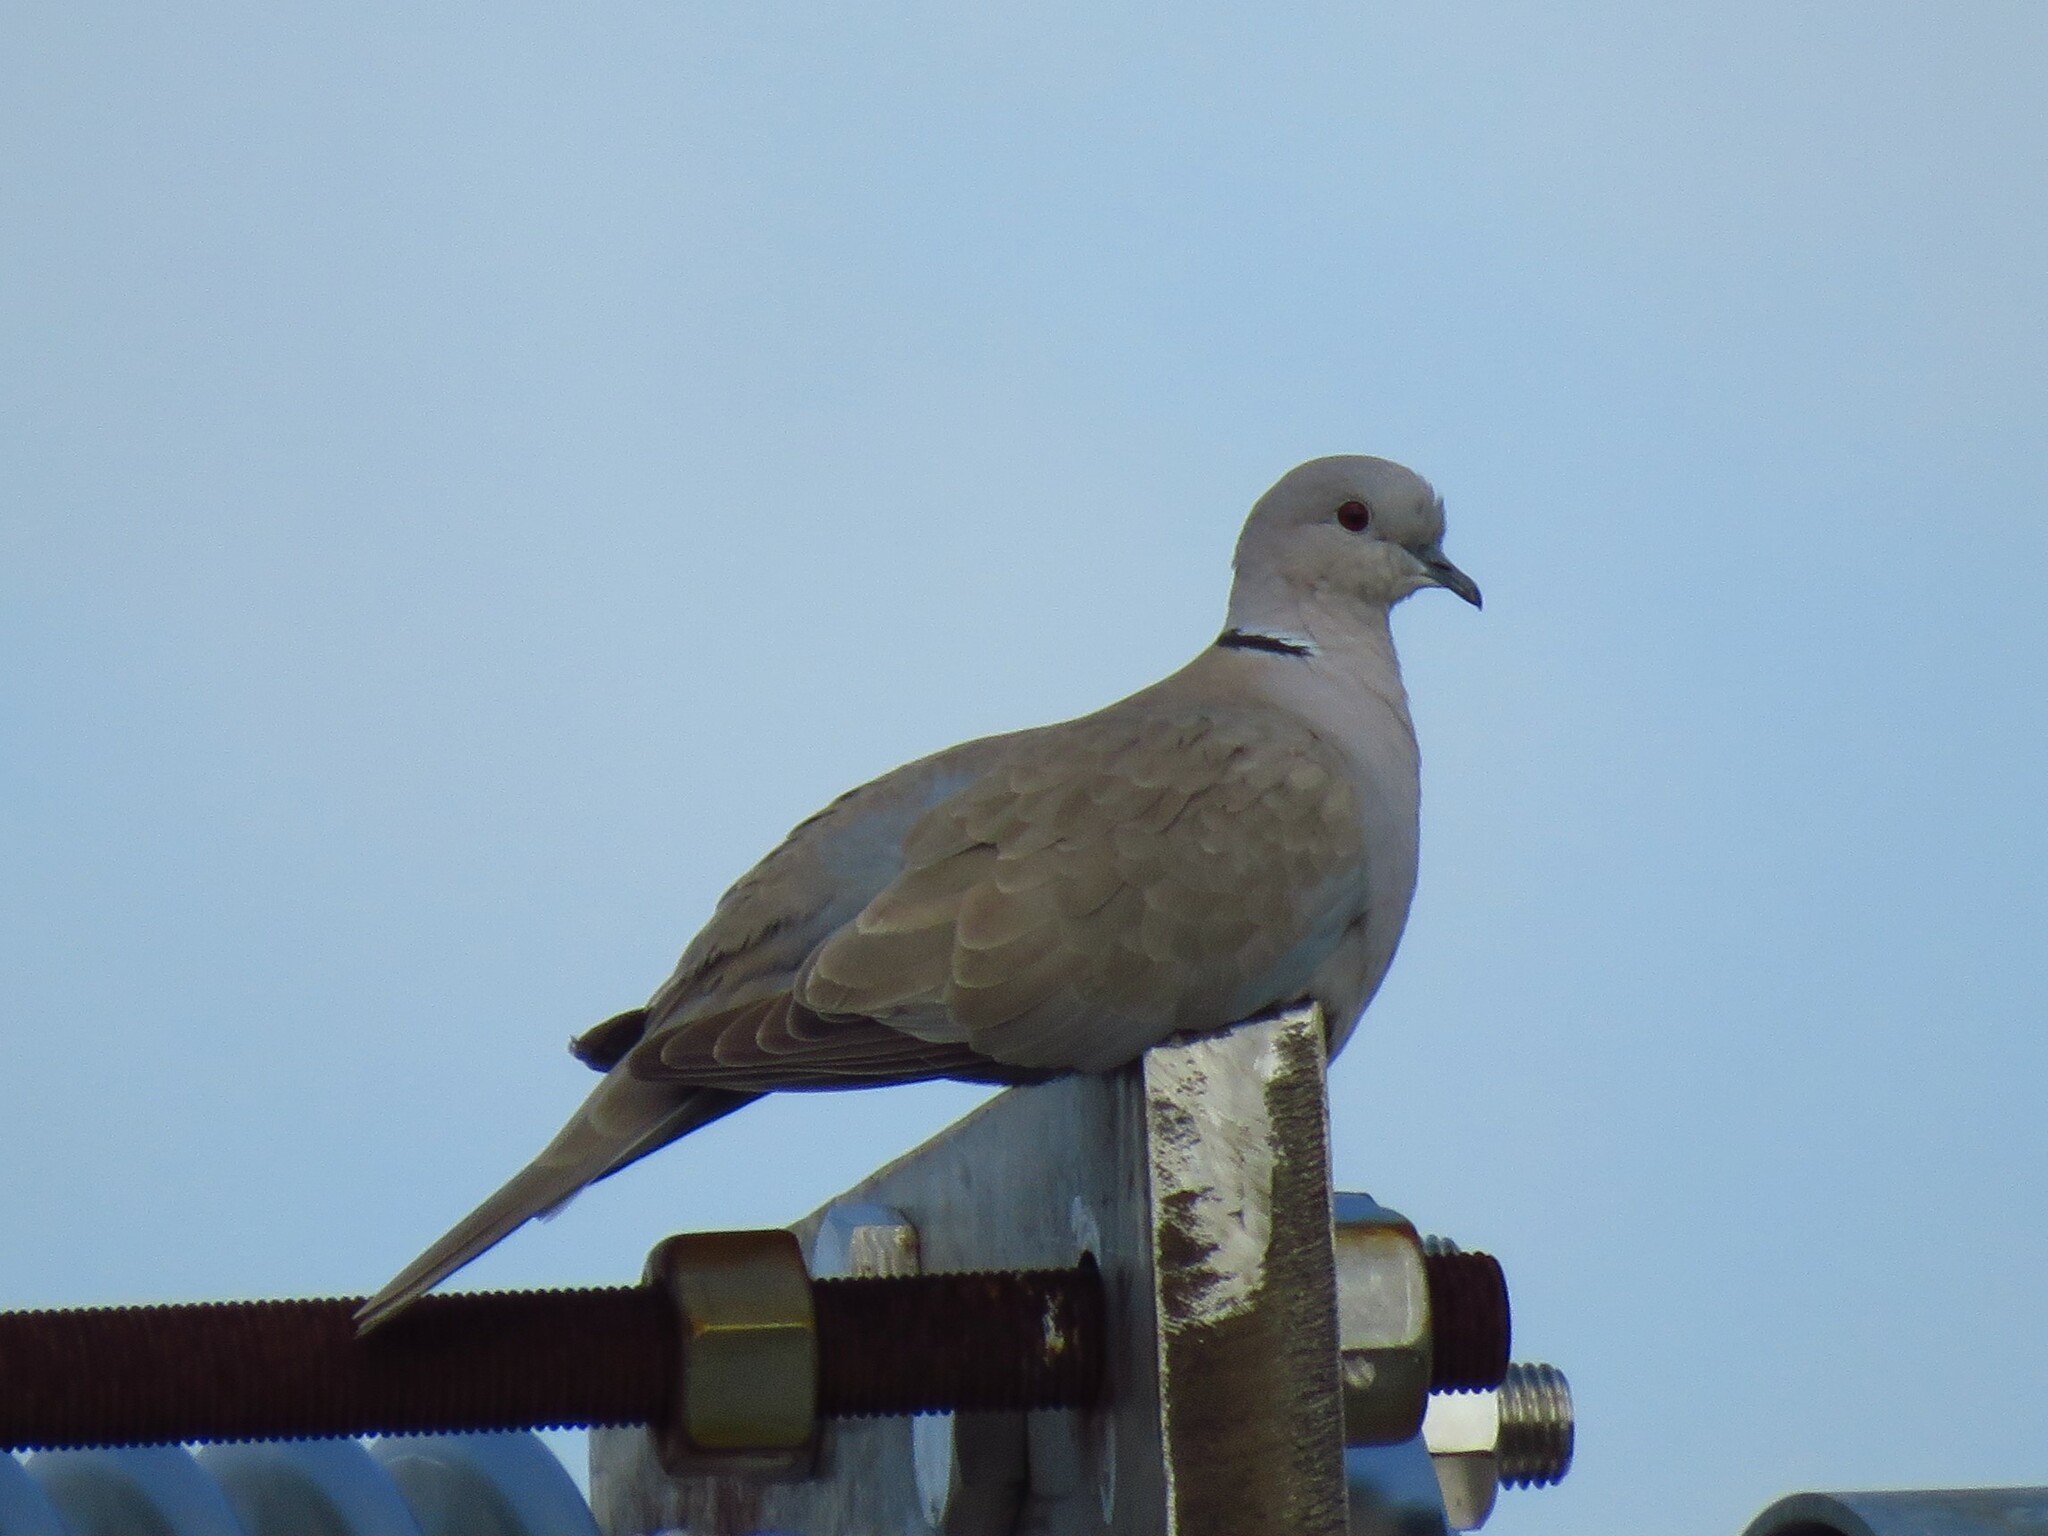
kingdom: Animalia
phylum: Chordata
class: Aves
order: Columbiformes
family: Columbidae
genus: Streptopelia
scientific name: Streptopelia decaocto
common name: Eurasian collared dove
